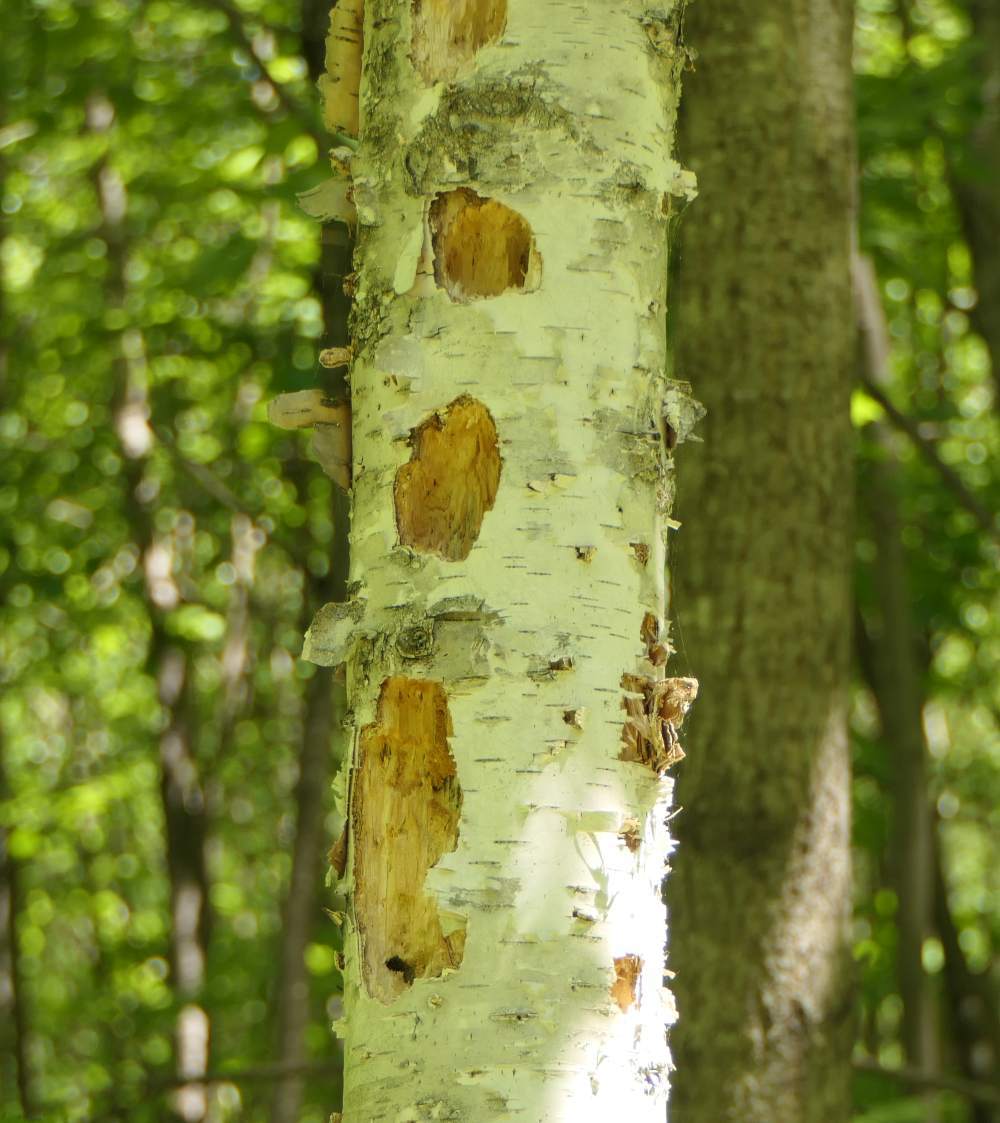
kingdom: Animalia
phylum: Chordata
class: Aves
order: Piciformes
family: Picidae
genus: Dryocopus
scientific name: Dryocopus pileatus
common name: Pileated woodpecker
